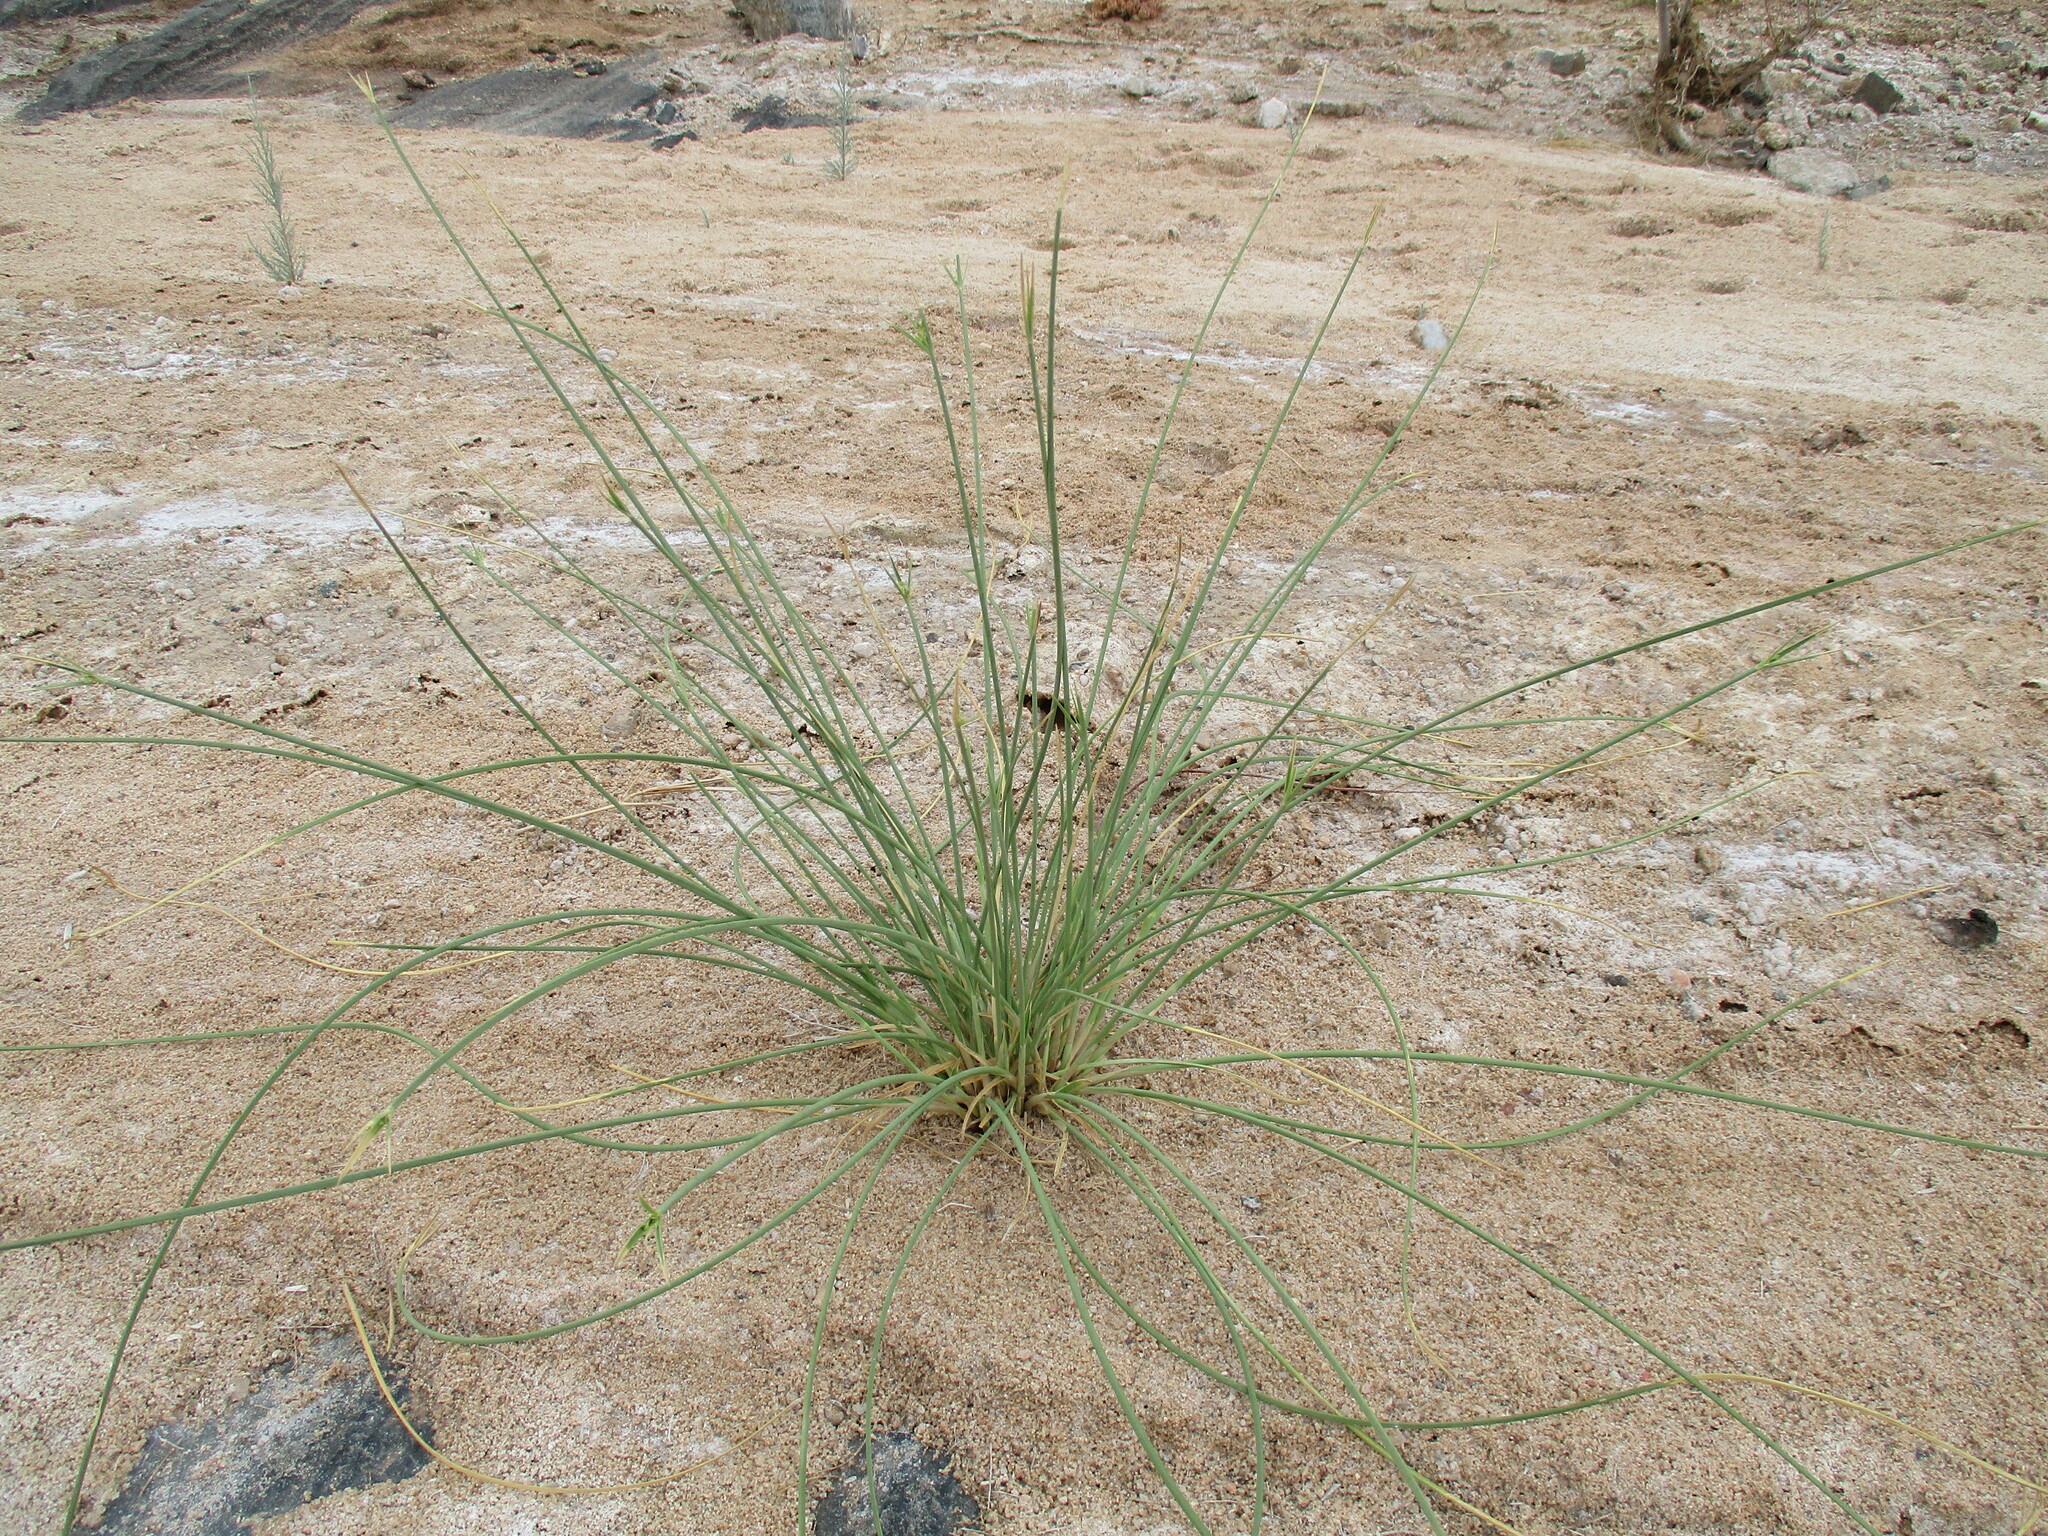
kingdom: Plantae
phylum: Tracheophyta
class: Liliopsida
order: Poales
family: Cyperaceae
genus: Cyperus
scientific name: Cyperus marginatus
